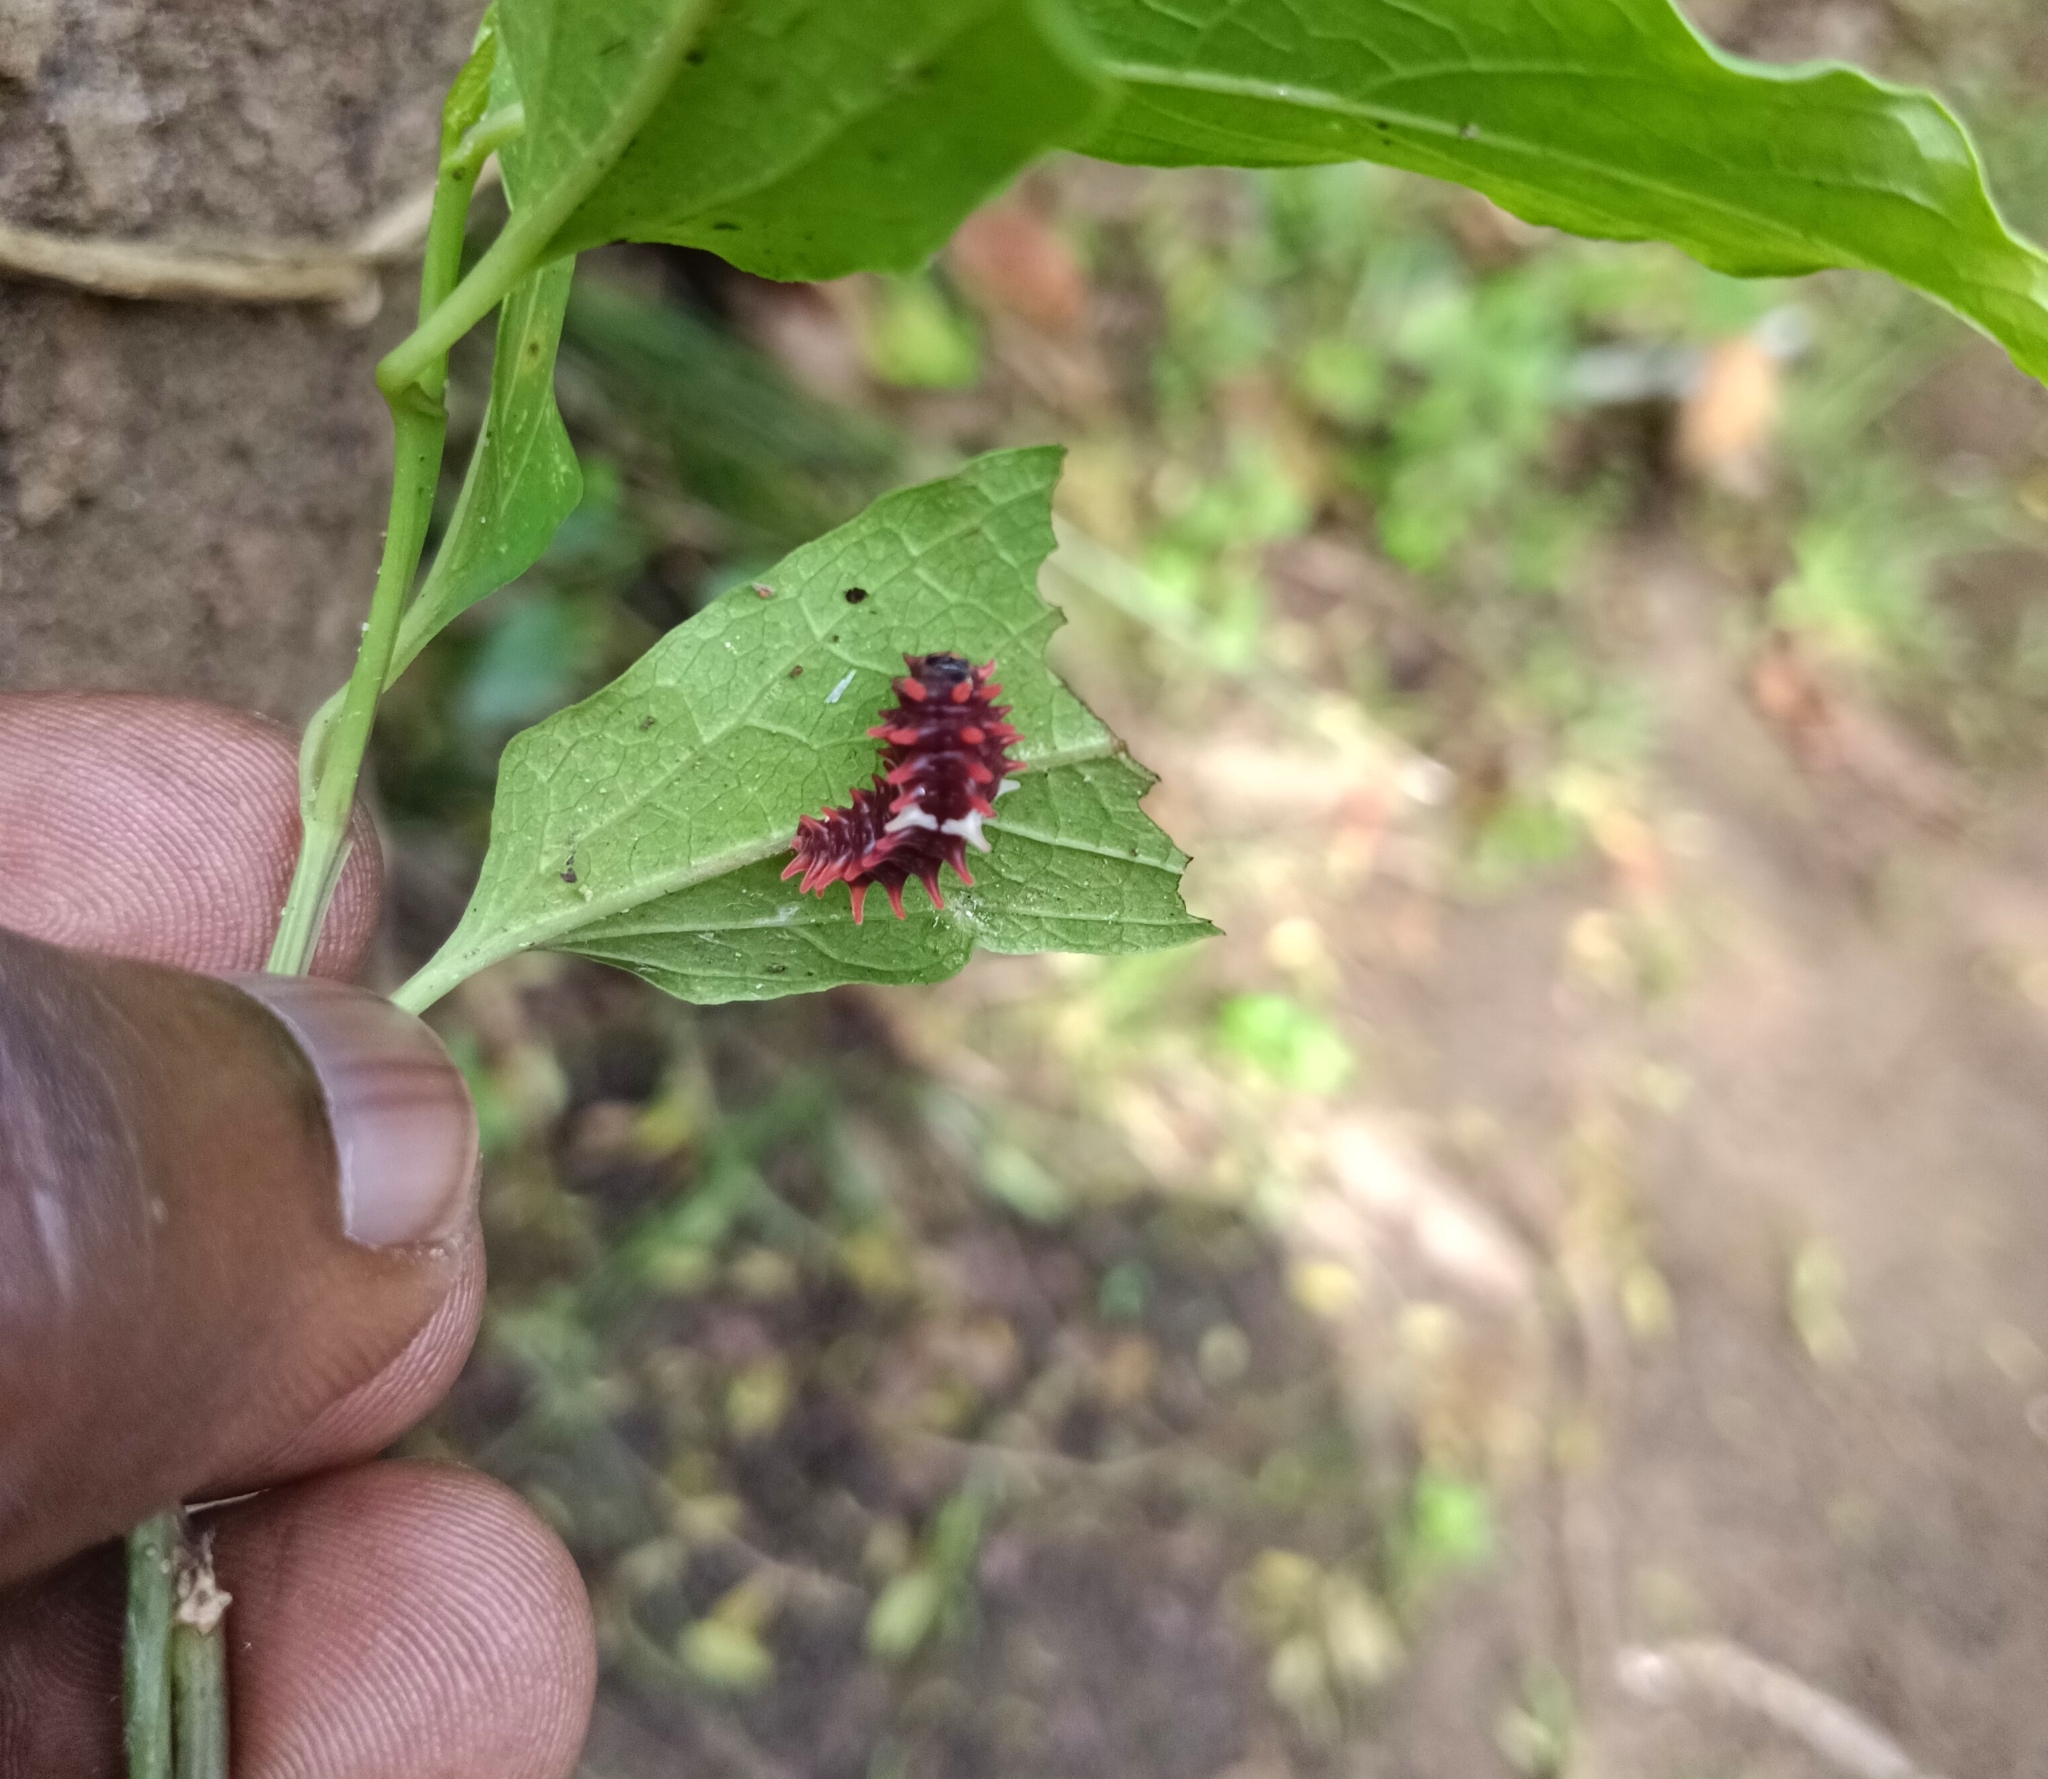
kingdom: Animalia
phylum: Arthropoda
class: Insecta
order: Lepidoptera
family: Papilionidae
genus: Pachliopta
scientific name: Pachliopta aristolochiae
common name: Common rose
